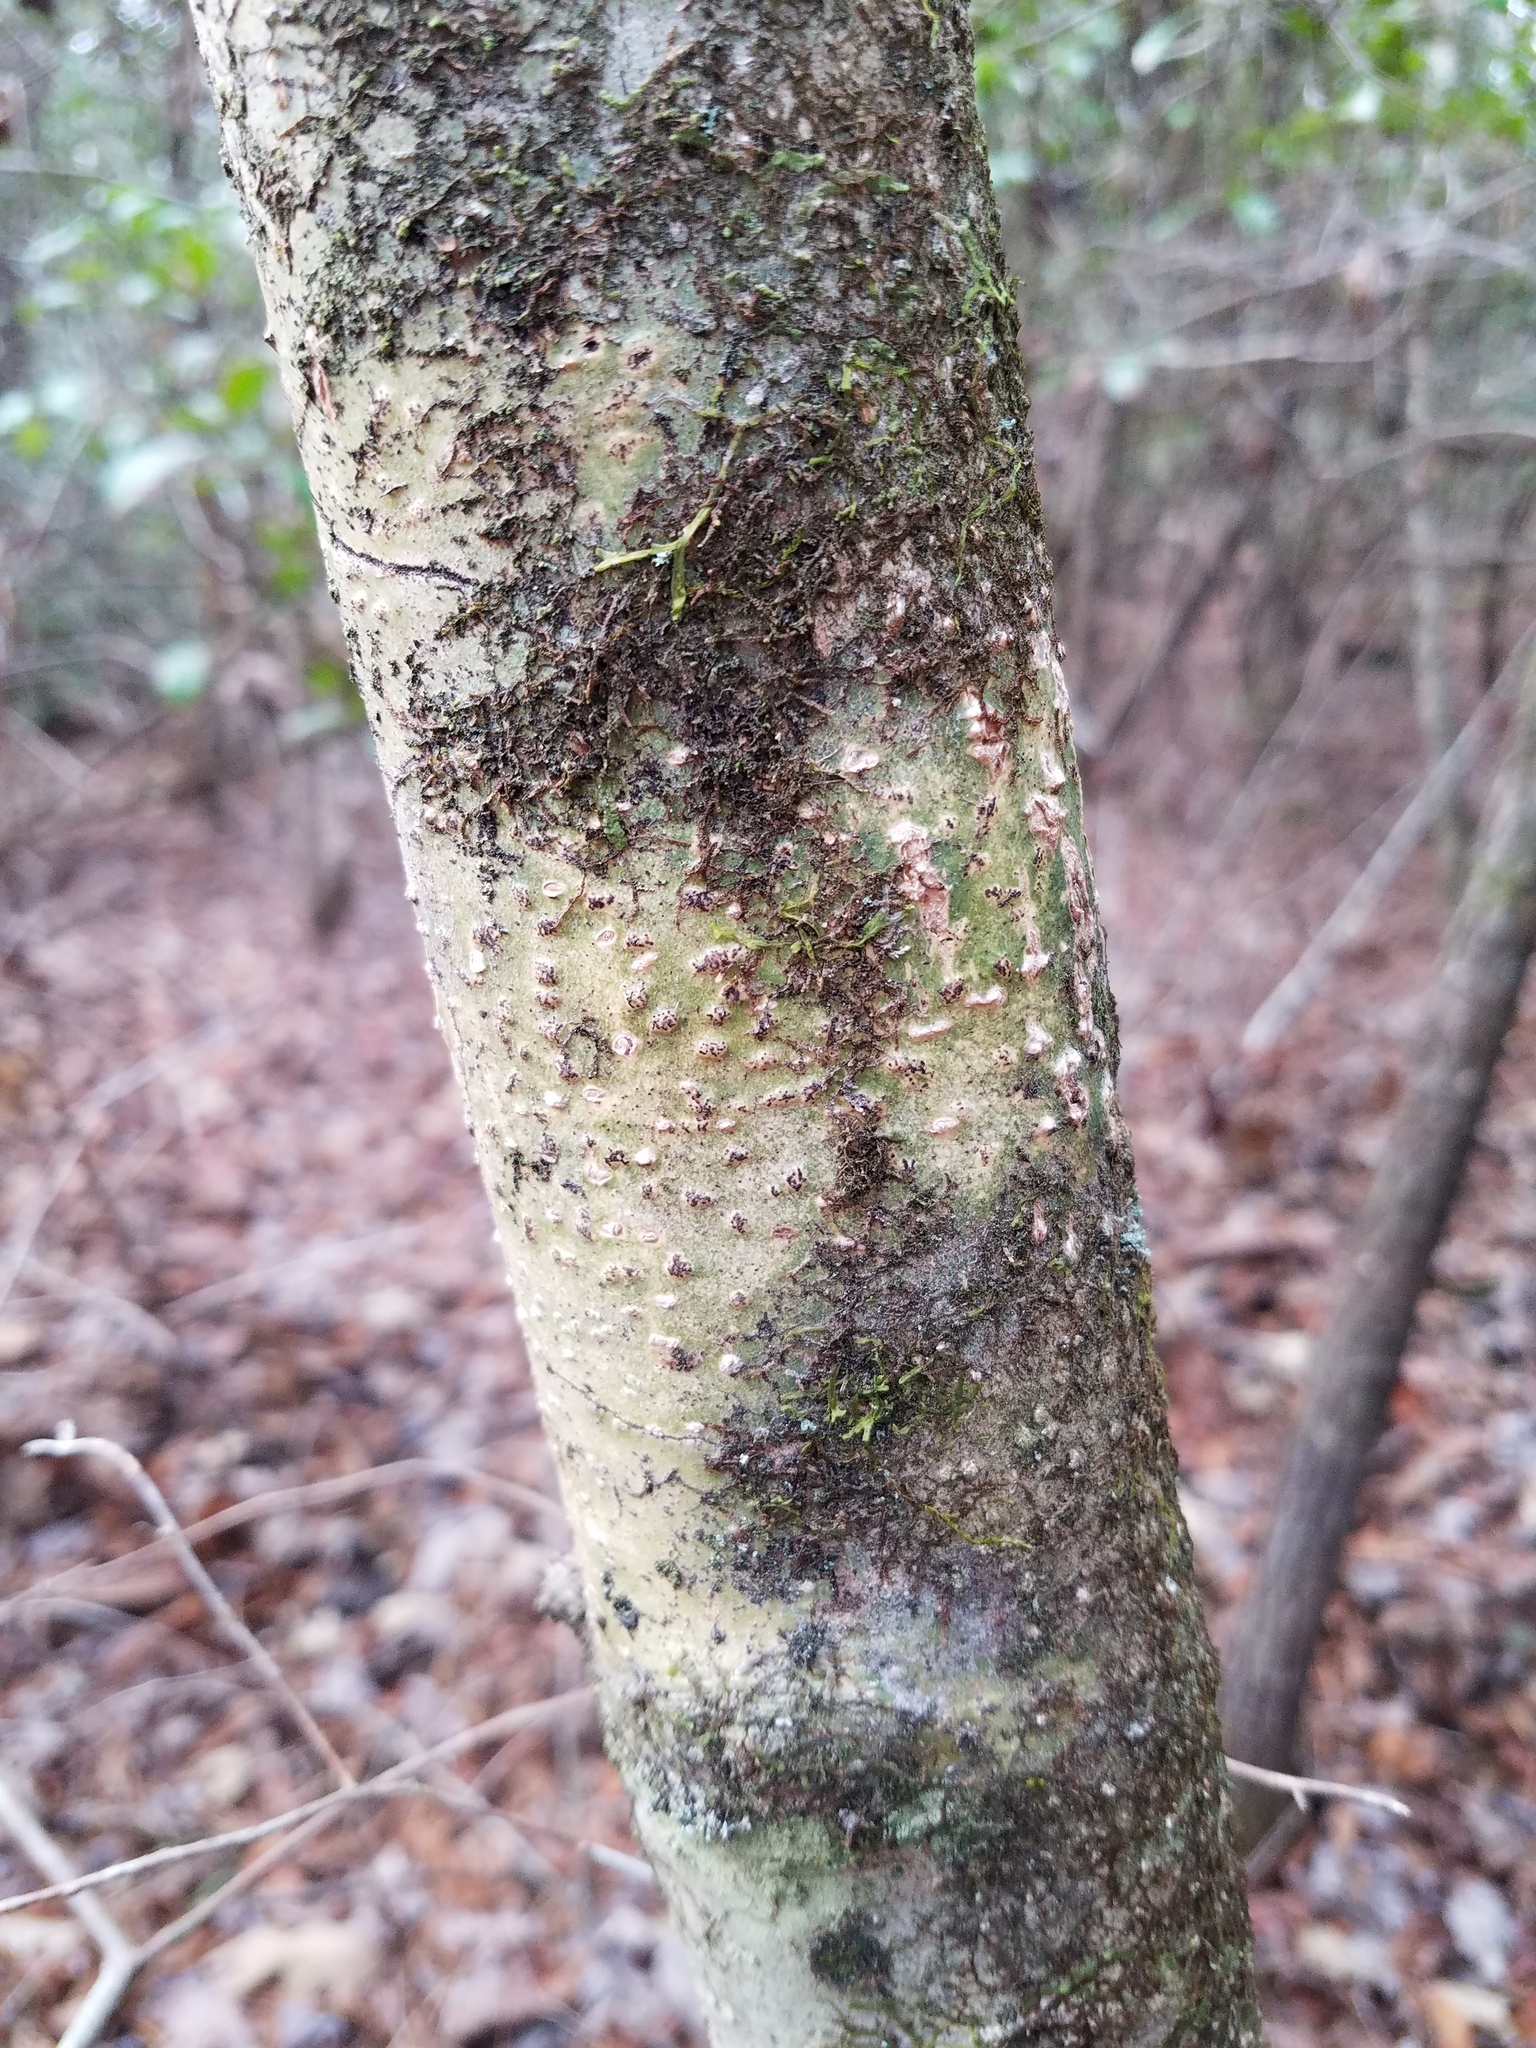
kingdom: Fungi
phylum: Ascomycota
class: Dothideomycetes
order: Trypetheliales
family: Trypetheliaceae
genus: Viridothelium
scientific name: Viridothelium virens
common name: Speckled blister lichen
